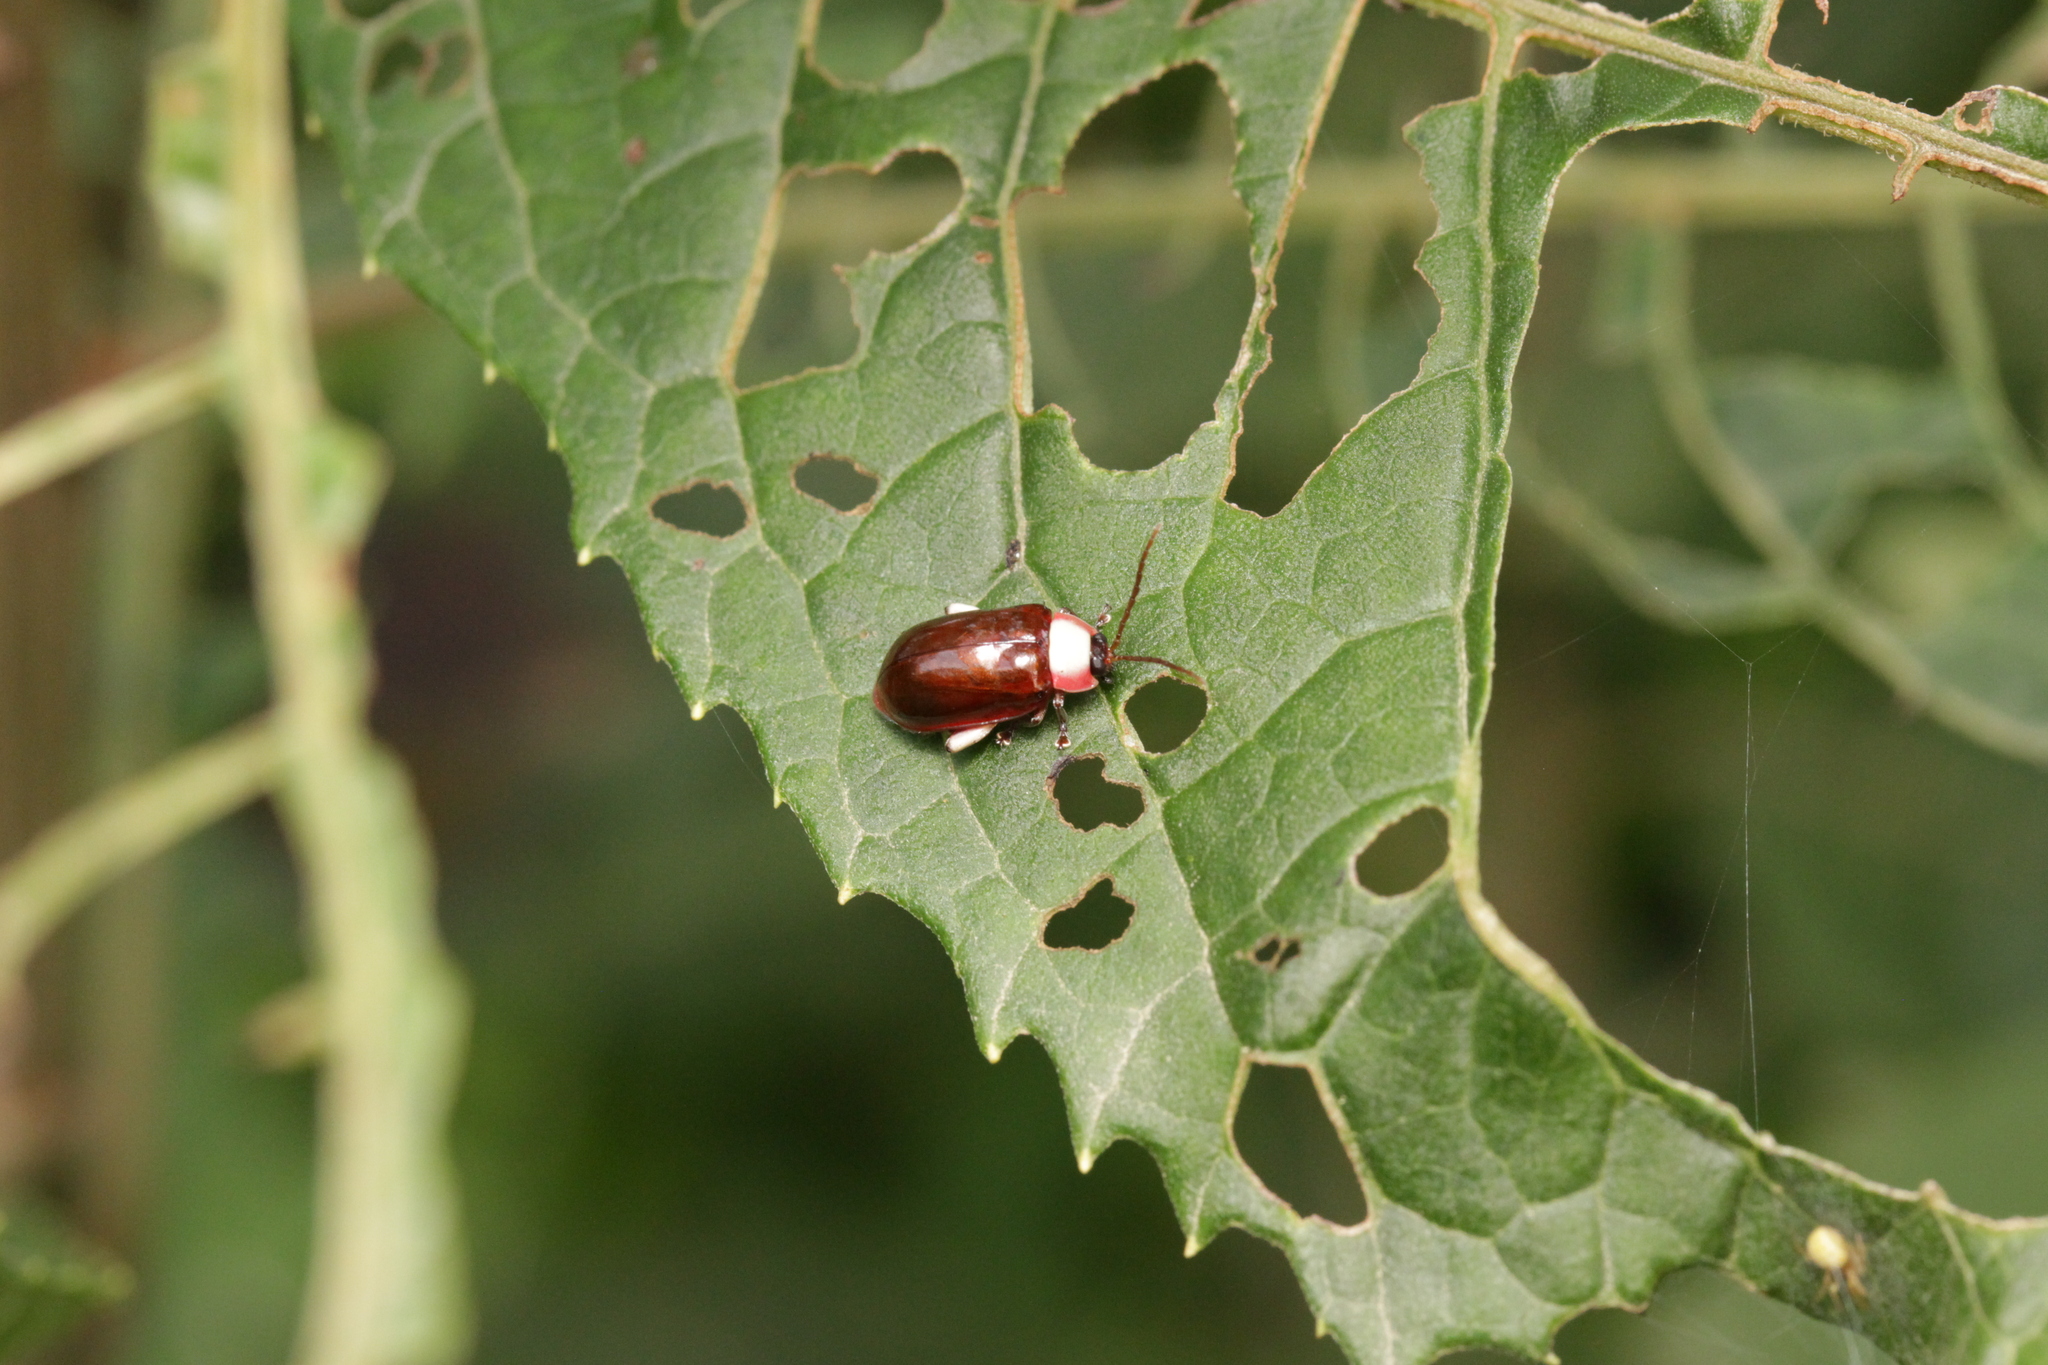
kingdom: Animalia
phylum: Arthropoda
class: Insecta
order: Coleoptera
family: Chrysomelidae
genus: Asphaera
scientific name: Asphaera
